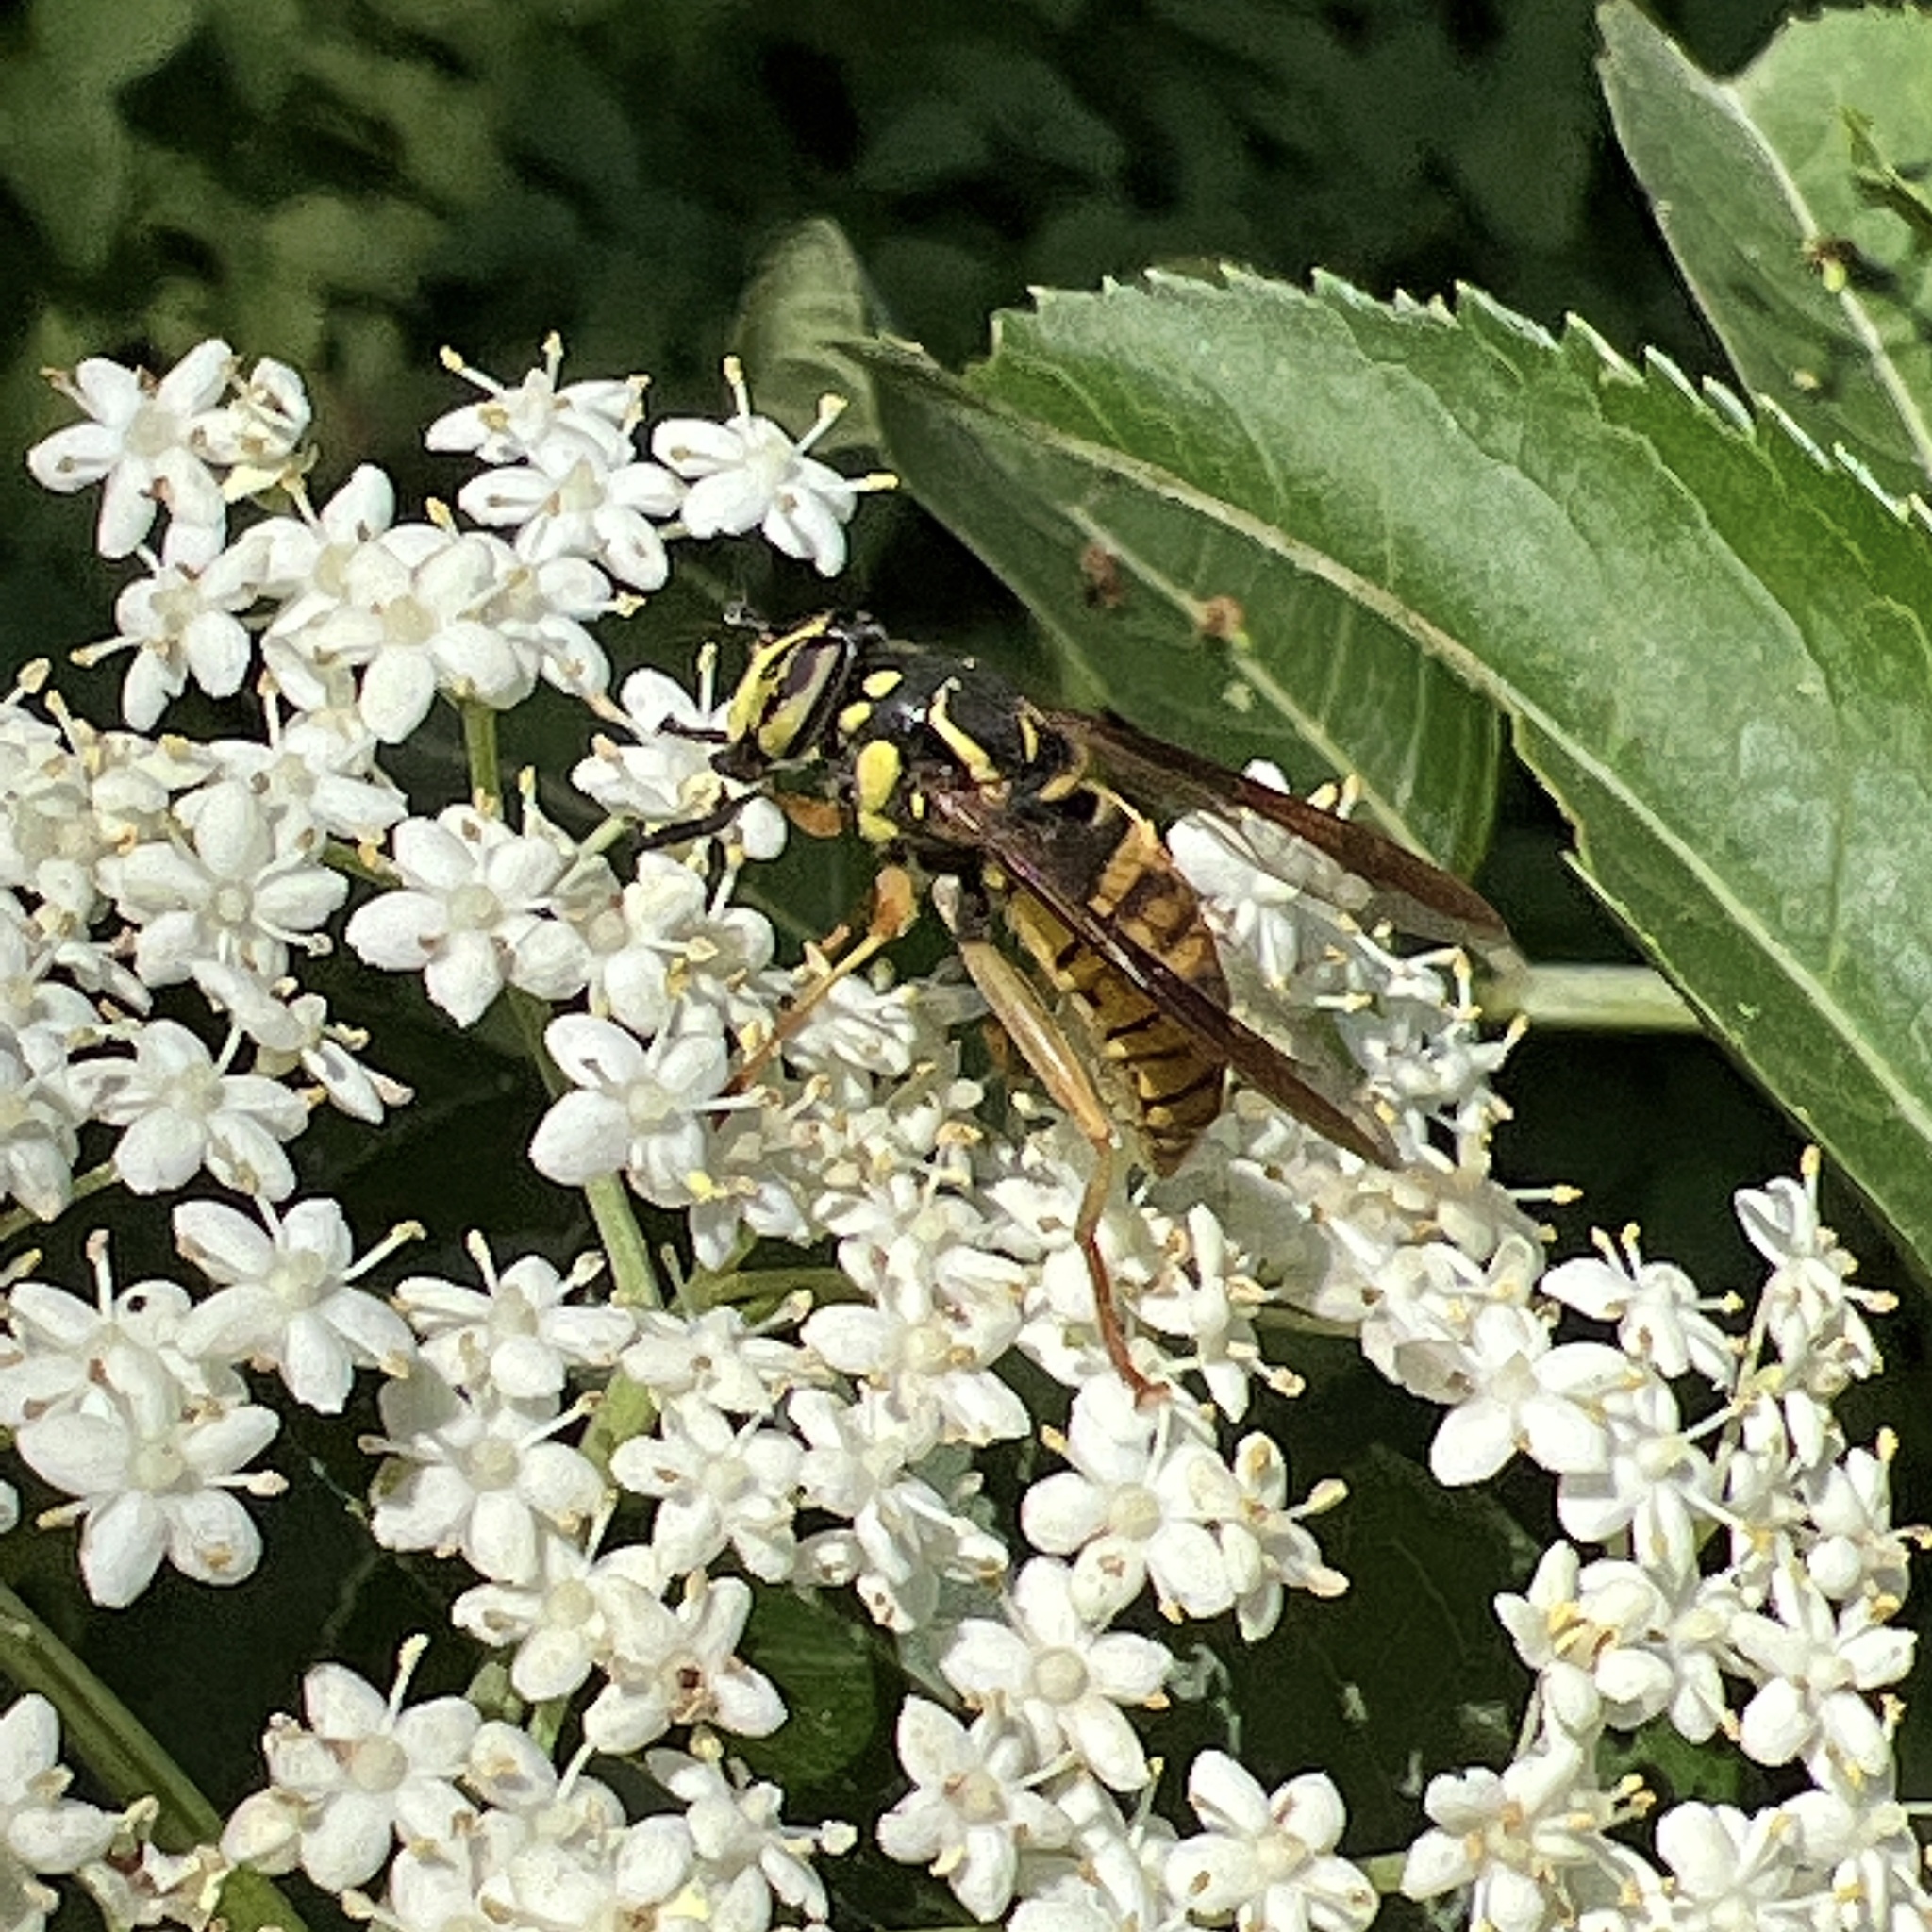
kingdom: Animalia
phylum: Arthropoda
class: Insecta
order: Diptera
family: Syrphidae
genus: Spilomyia
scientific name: Spilomyia alcimus
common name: Broad-banded hornet fly
